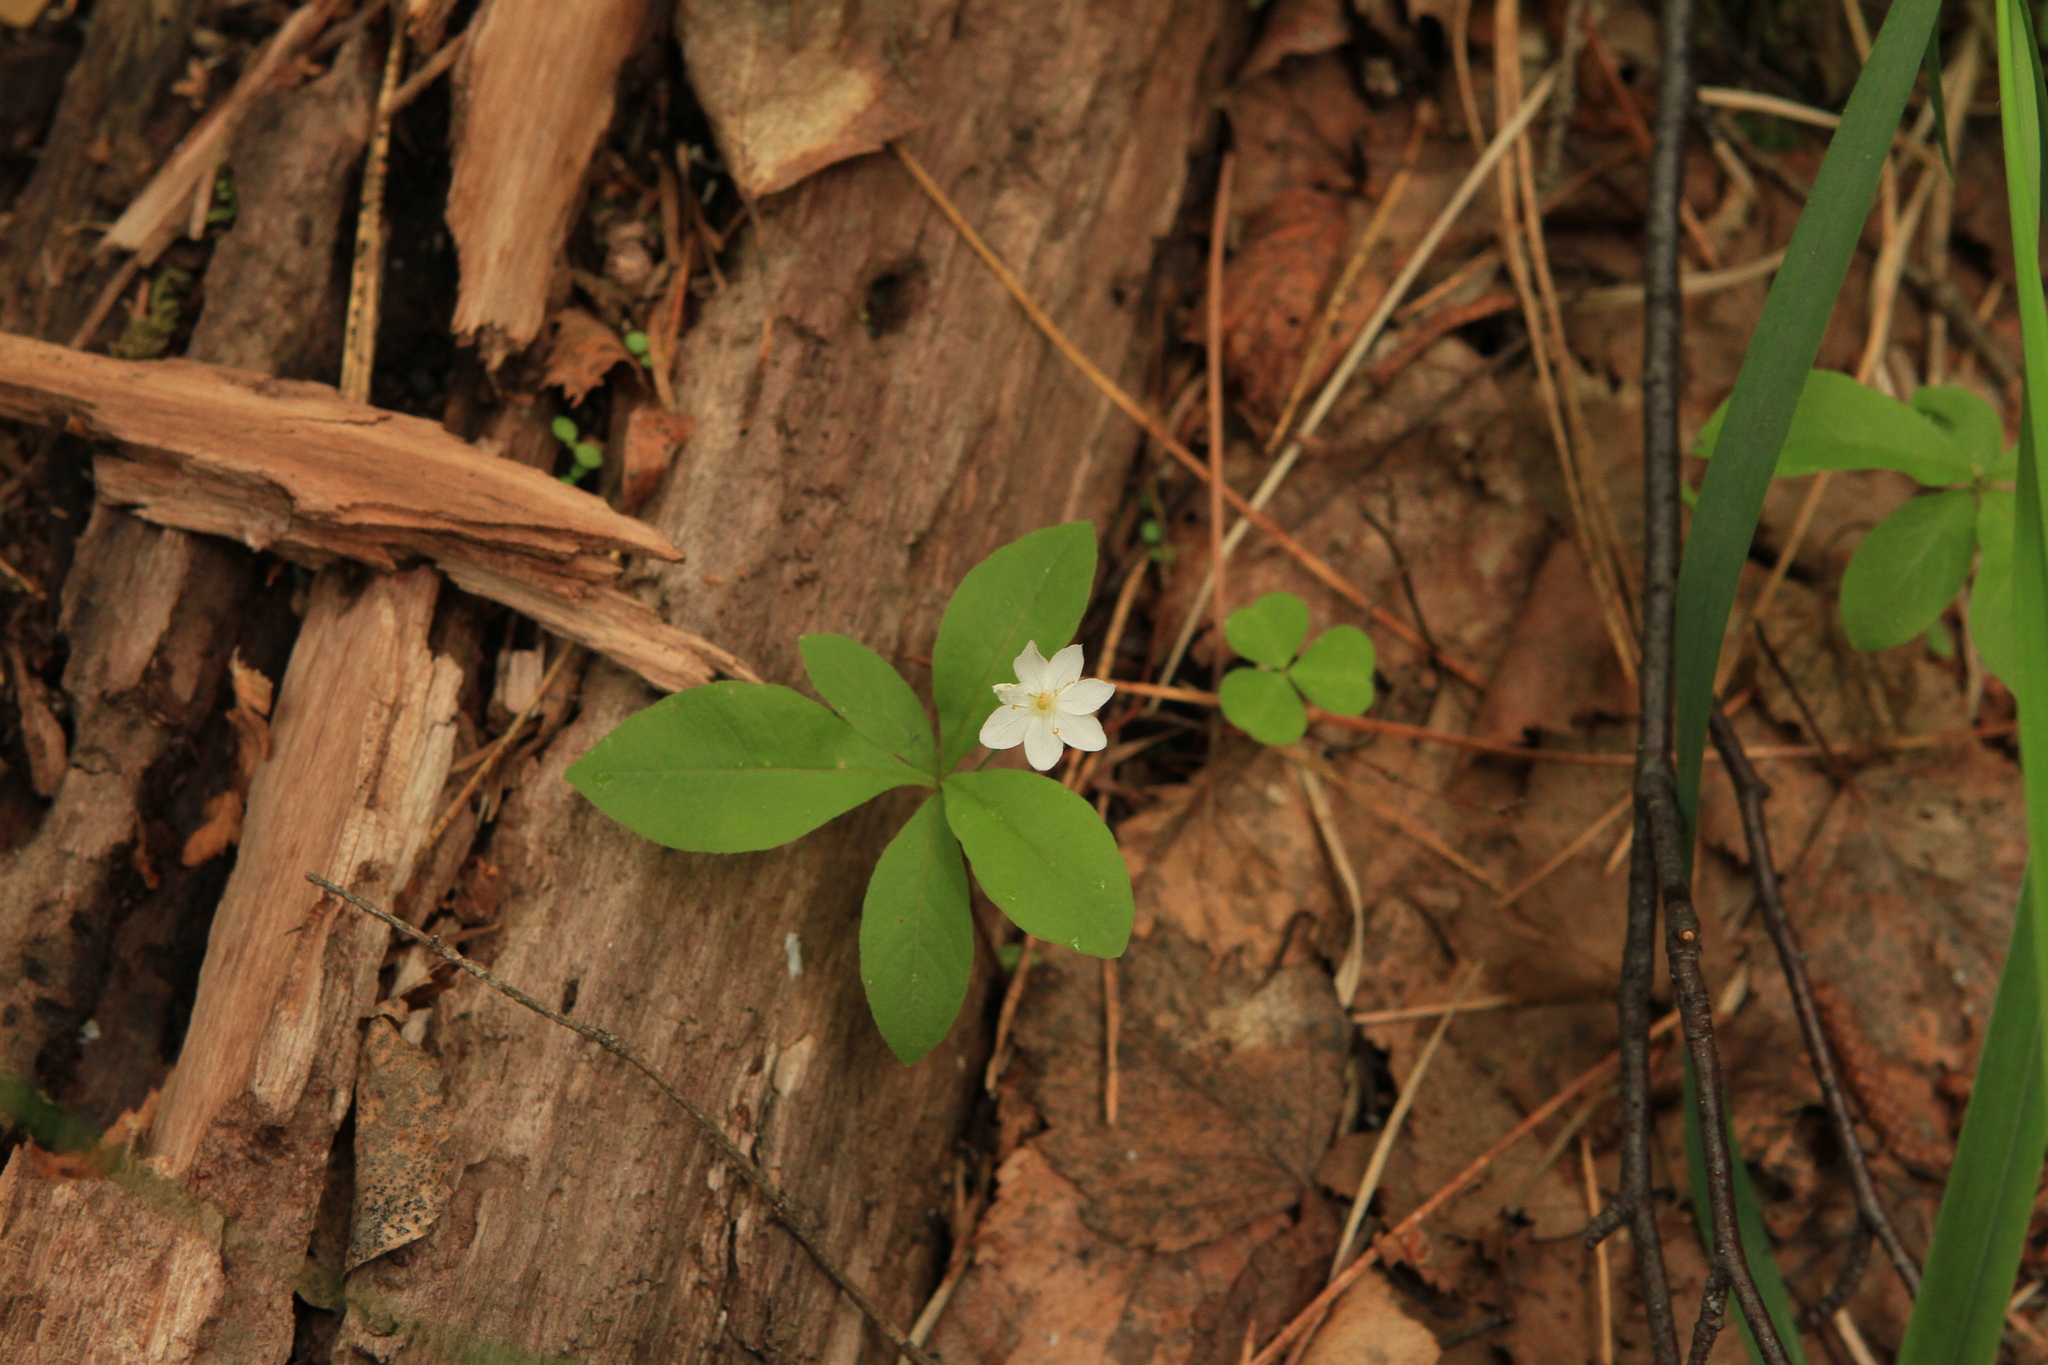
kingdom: Plantae
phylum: Tracheophyta
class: Magnoliopsida
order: Ericales
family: Primulaceae
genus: Lysimachia
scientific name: Lysimachia europaea
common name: Arctic starflower
